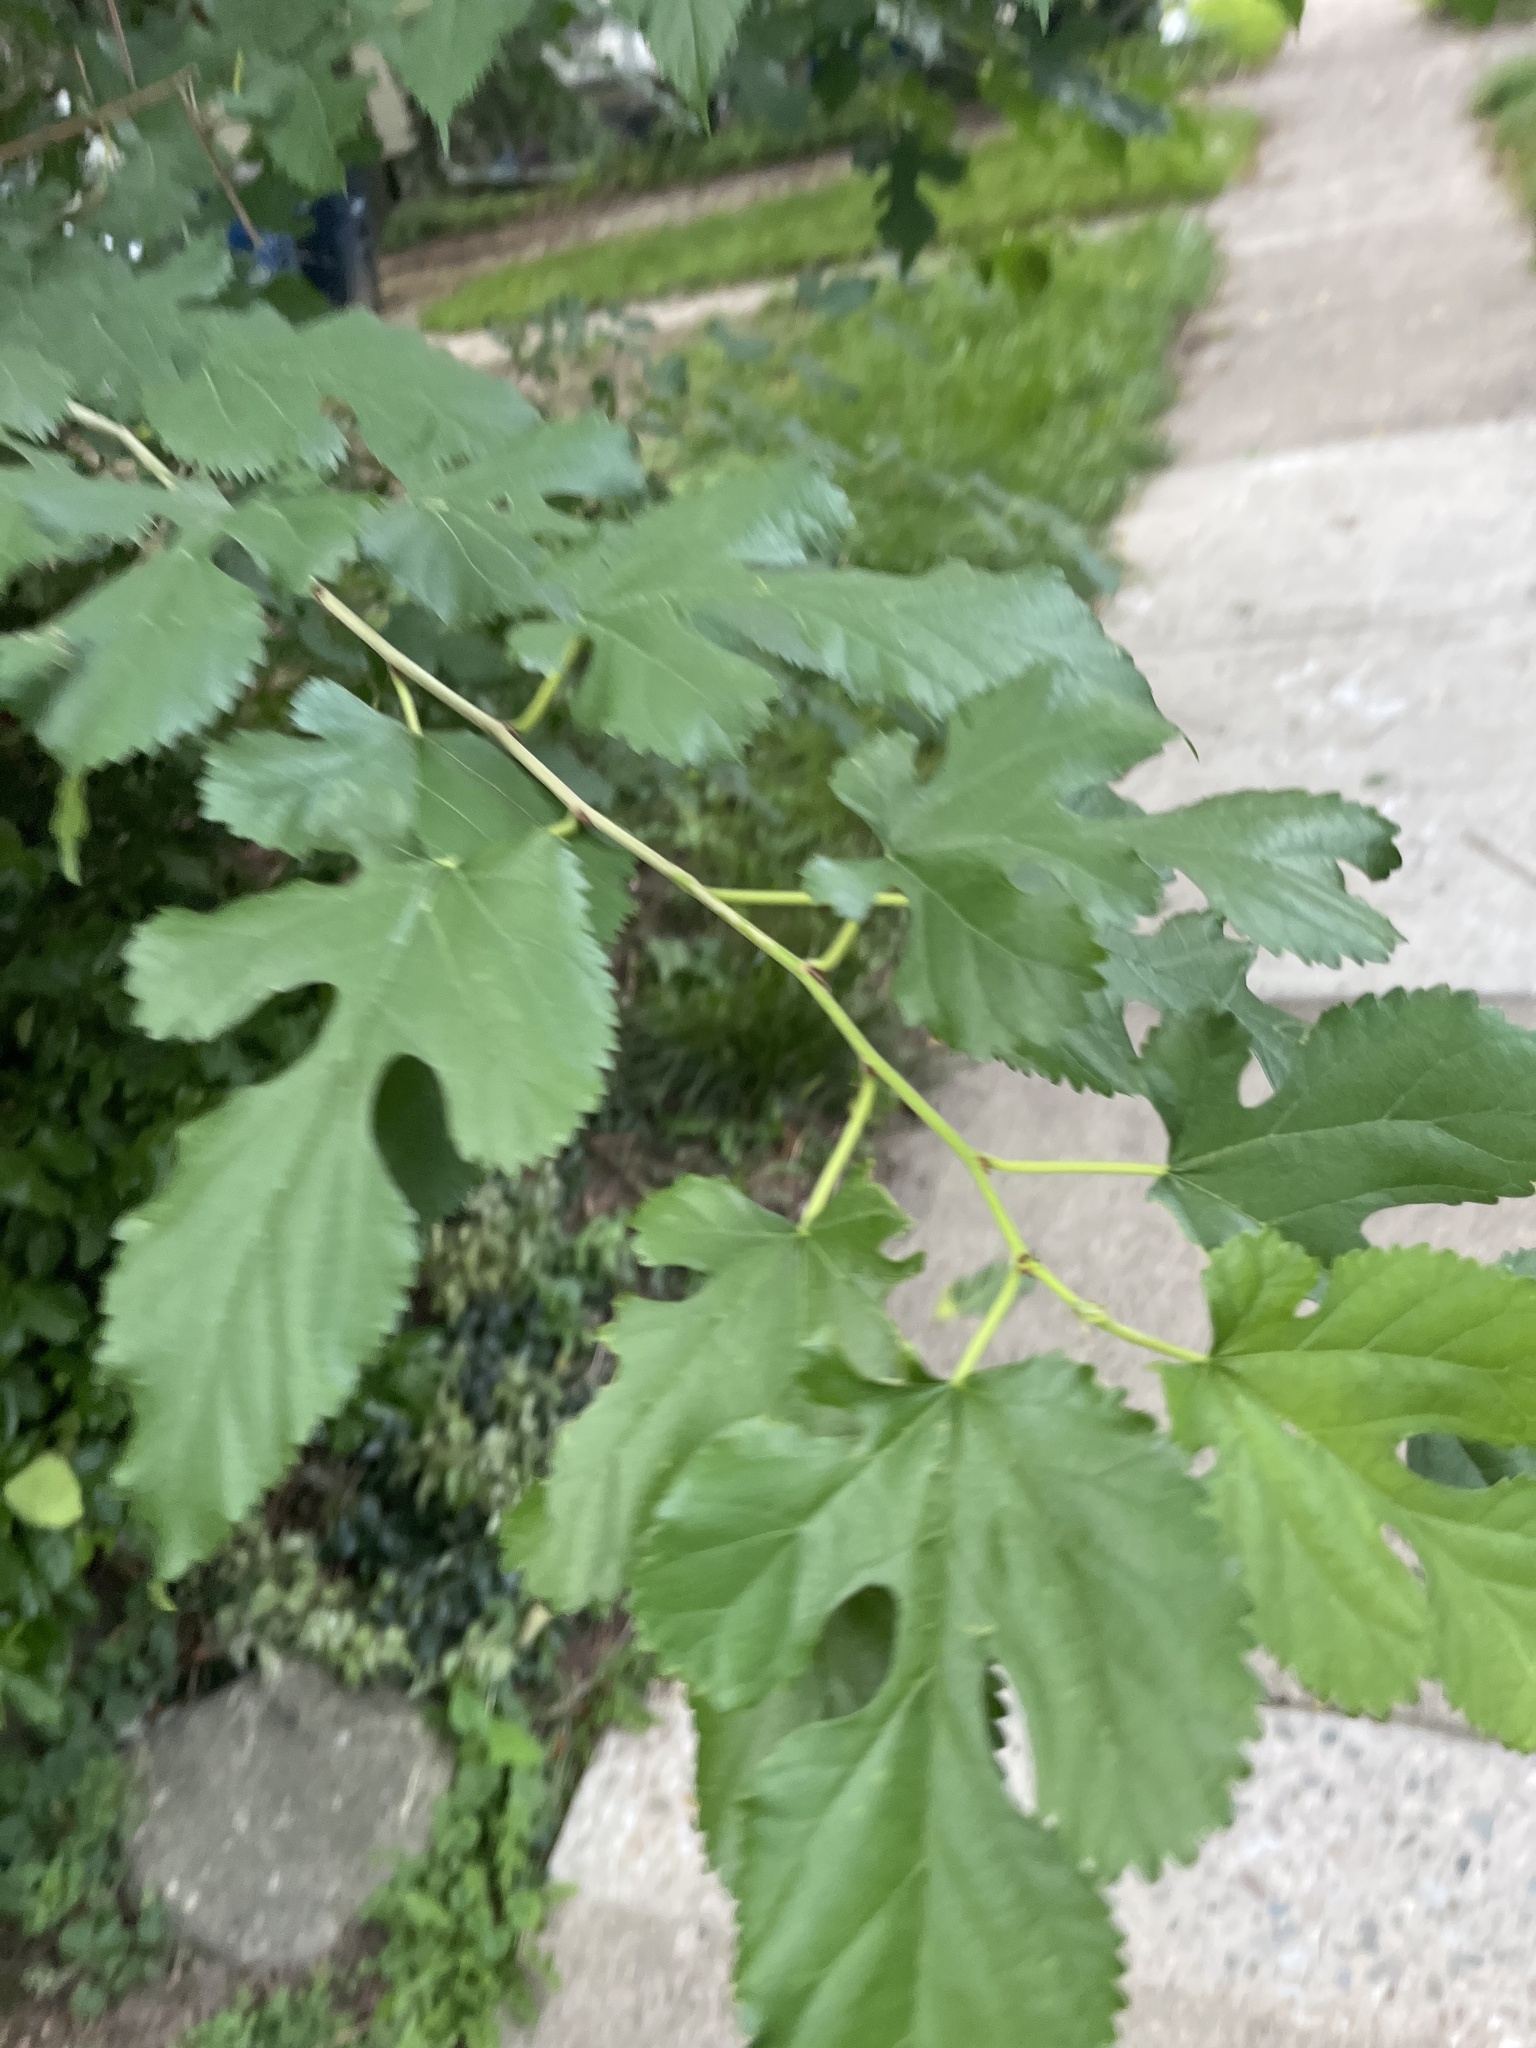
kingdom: Plantae
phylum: Tracheophyta
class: Magnoliopsida
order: Rosales
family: Moraceae
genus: Morus
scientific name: Morus alba
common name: White mulberry
